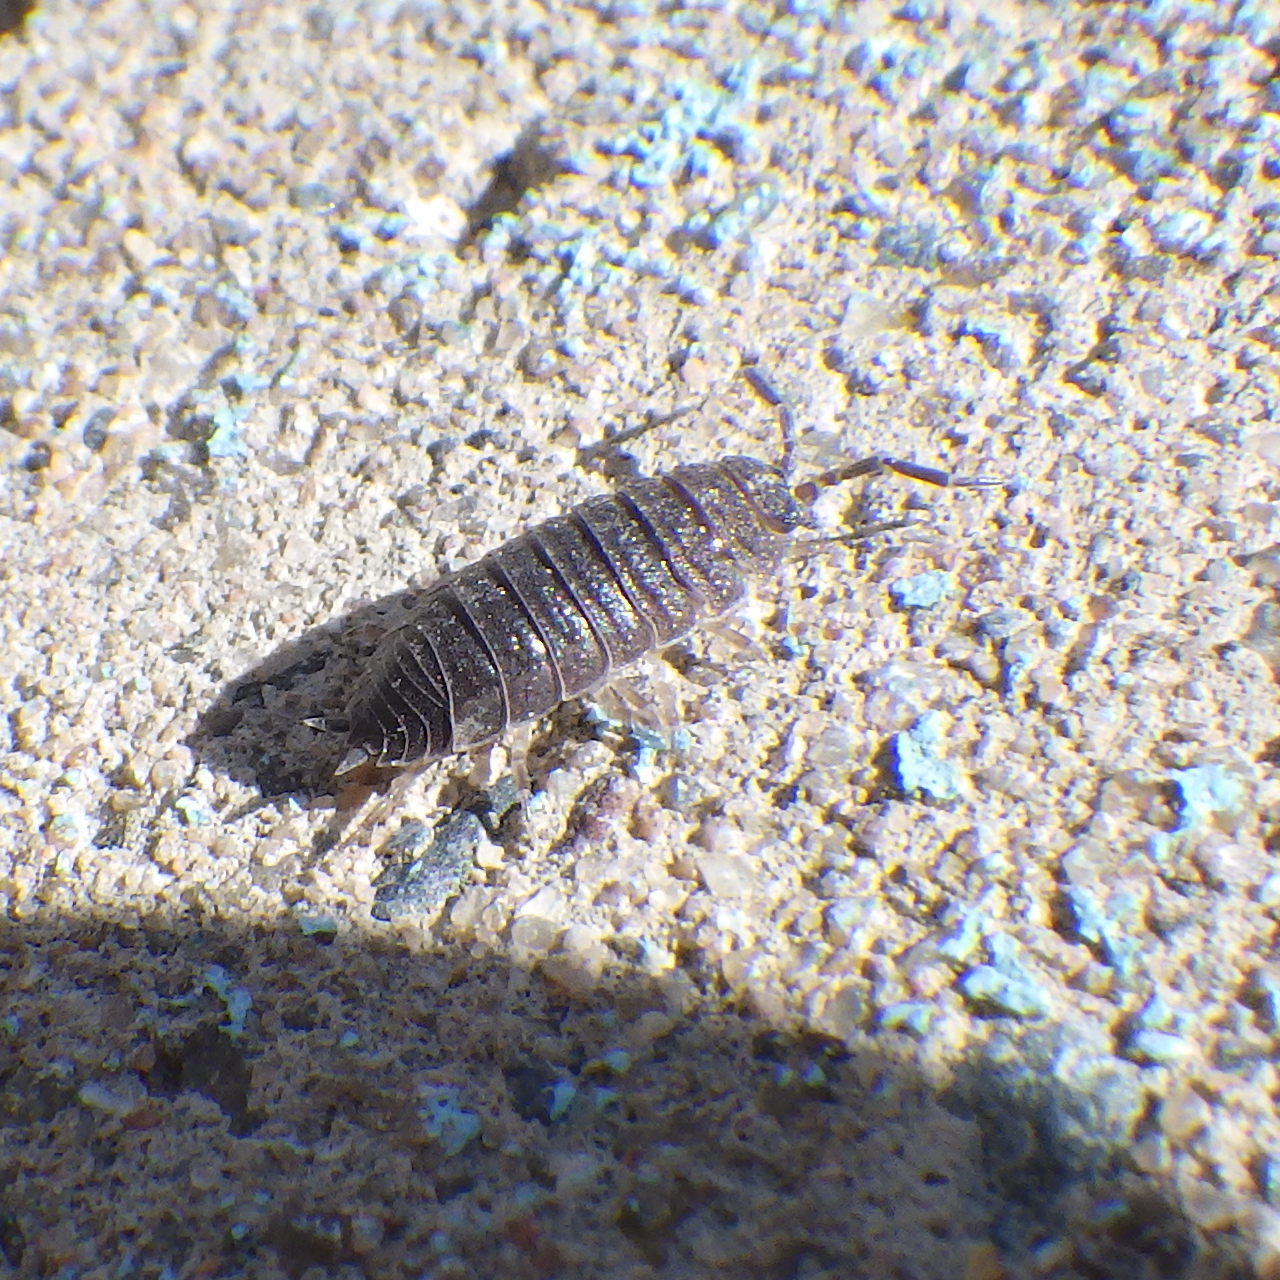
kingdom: Animalia
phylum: Arthropoda
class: Malacostraca
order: Isopoda
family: Porcellionidae
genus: Porcellio
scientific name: Porcellio scaber
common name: Common rough woodlouse
